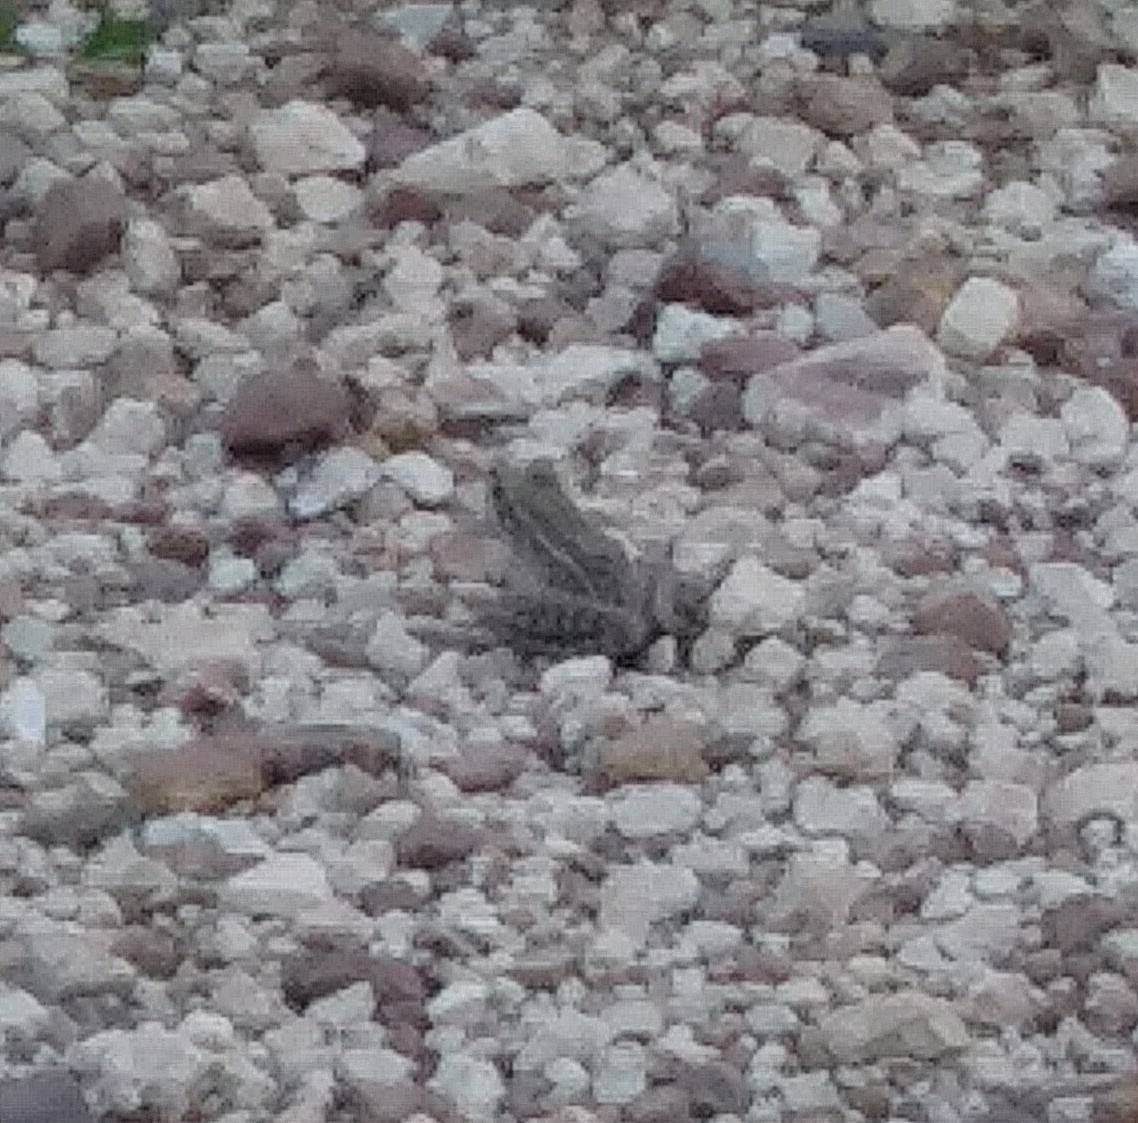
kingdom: Animalia
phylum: Chordata
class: Amphibia
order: Anura
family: Ranidae
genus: Lithobates
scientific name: Lithobates sphenocephalus
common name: Southern leopard frog
